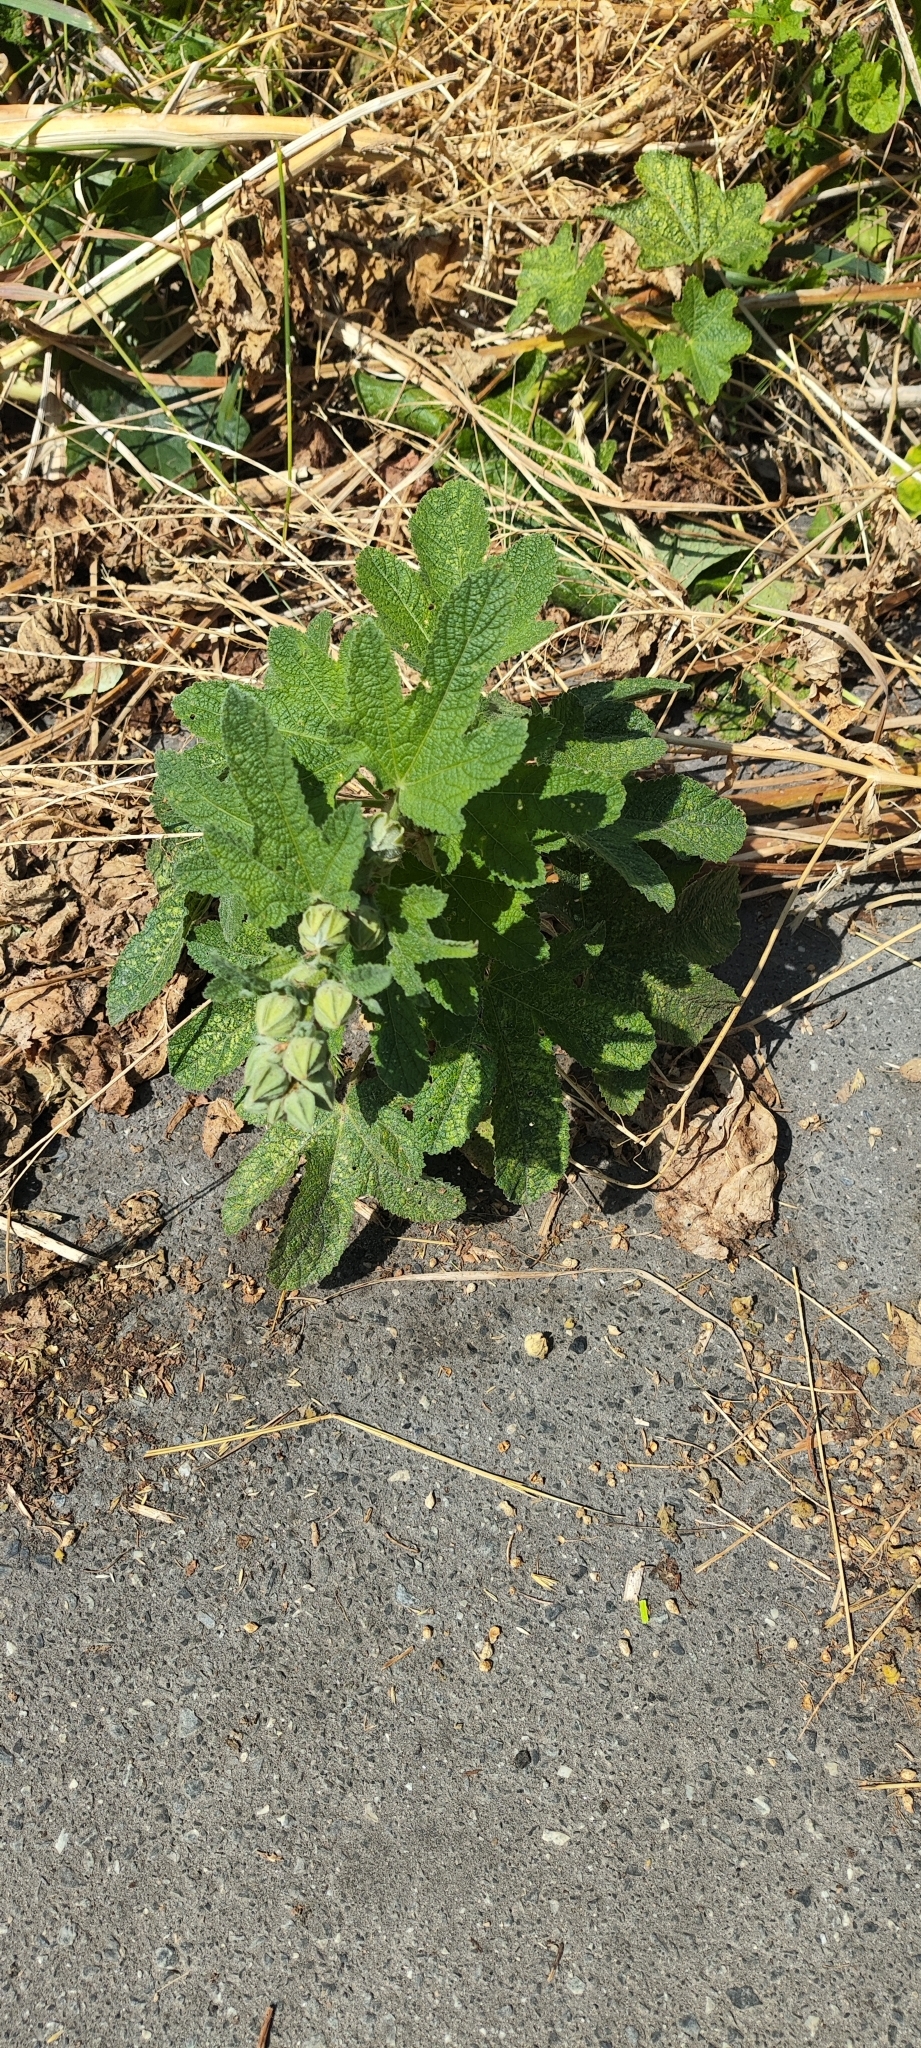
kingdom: Plantae
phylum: Tracheophyta
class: Magnoliopsida
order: Malvales
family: Malvaceae
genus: Alcea
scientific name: Alcea rosea
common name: Hollyhock
